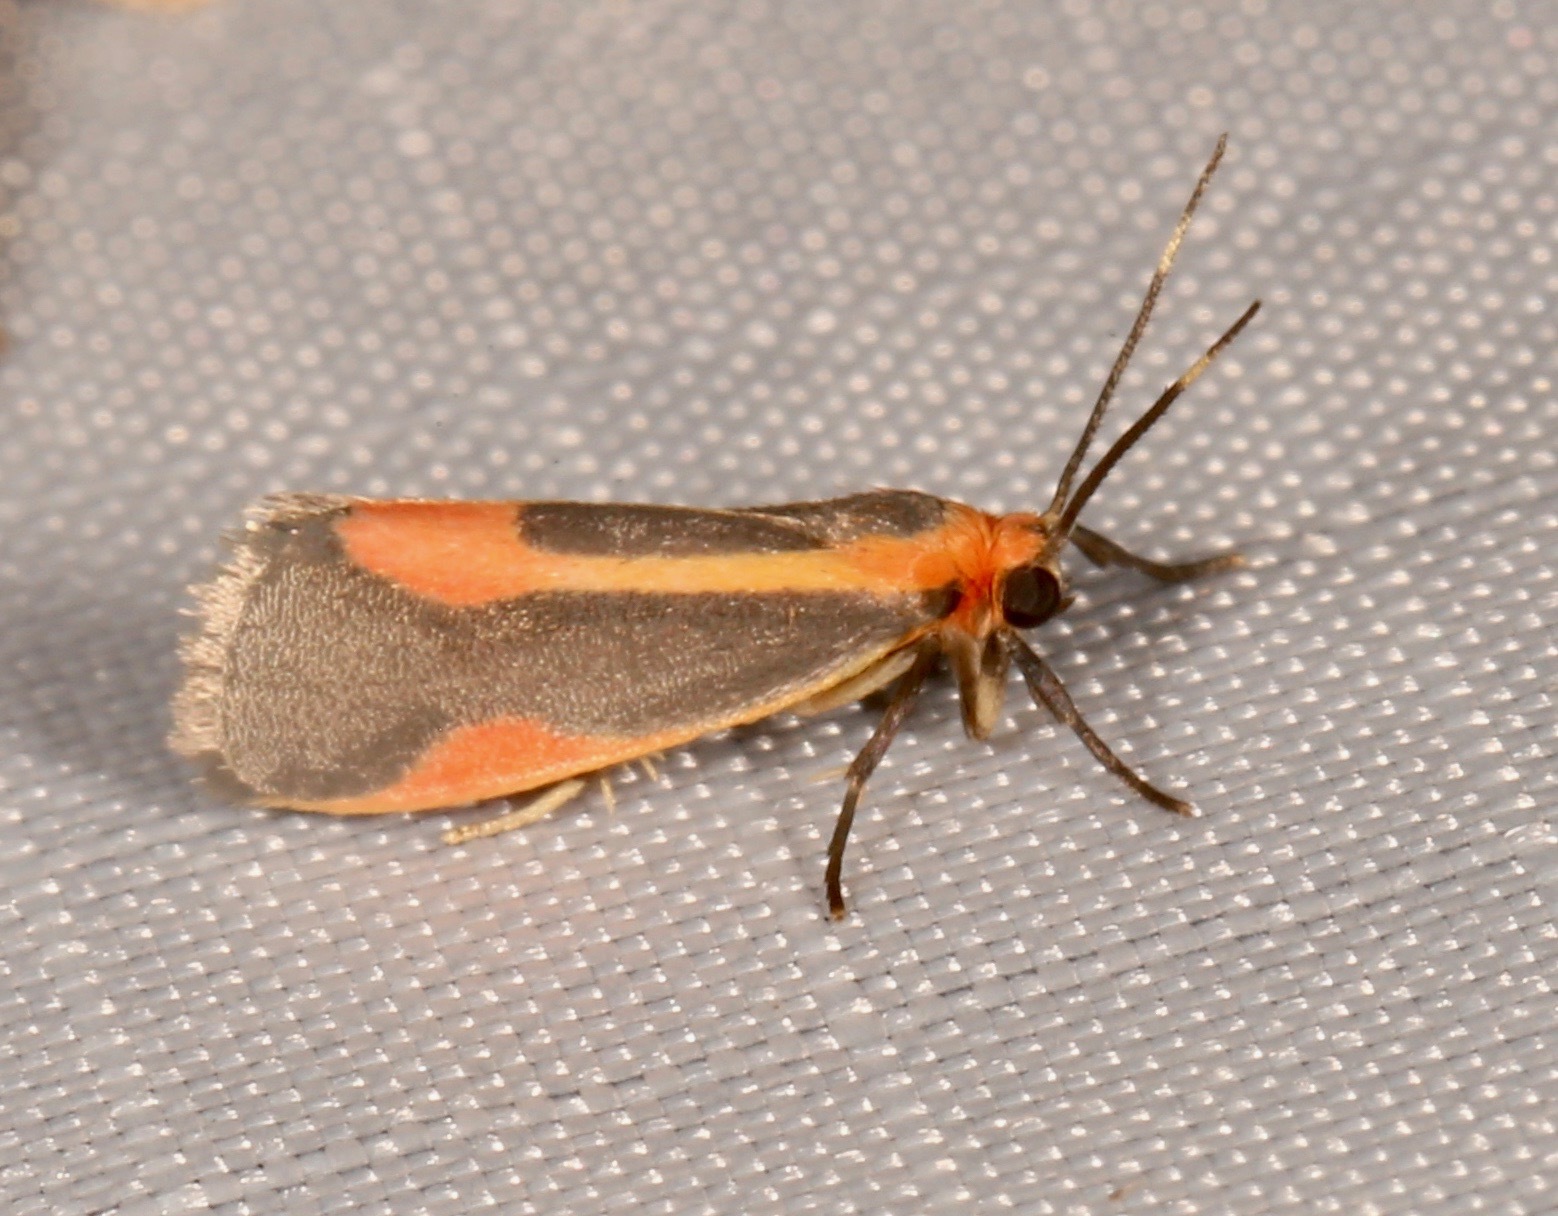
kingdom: Animalia
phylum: Arthropoda
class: Insecta
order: Lepidoptera
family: Erebidae
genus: Cisthene
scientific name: Cisthene subjecta
